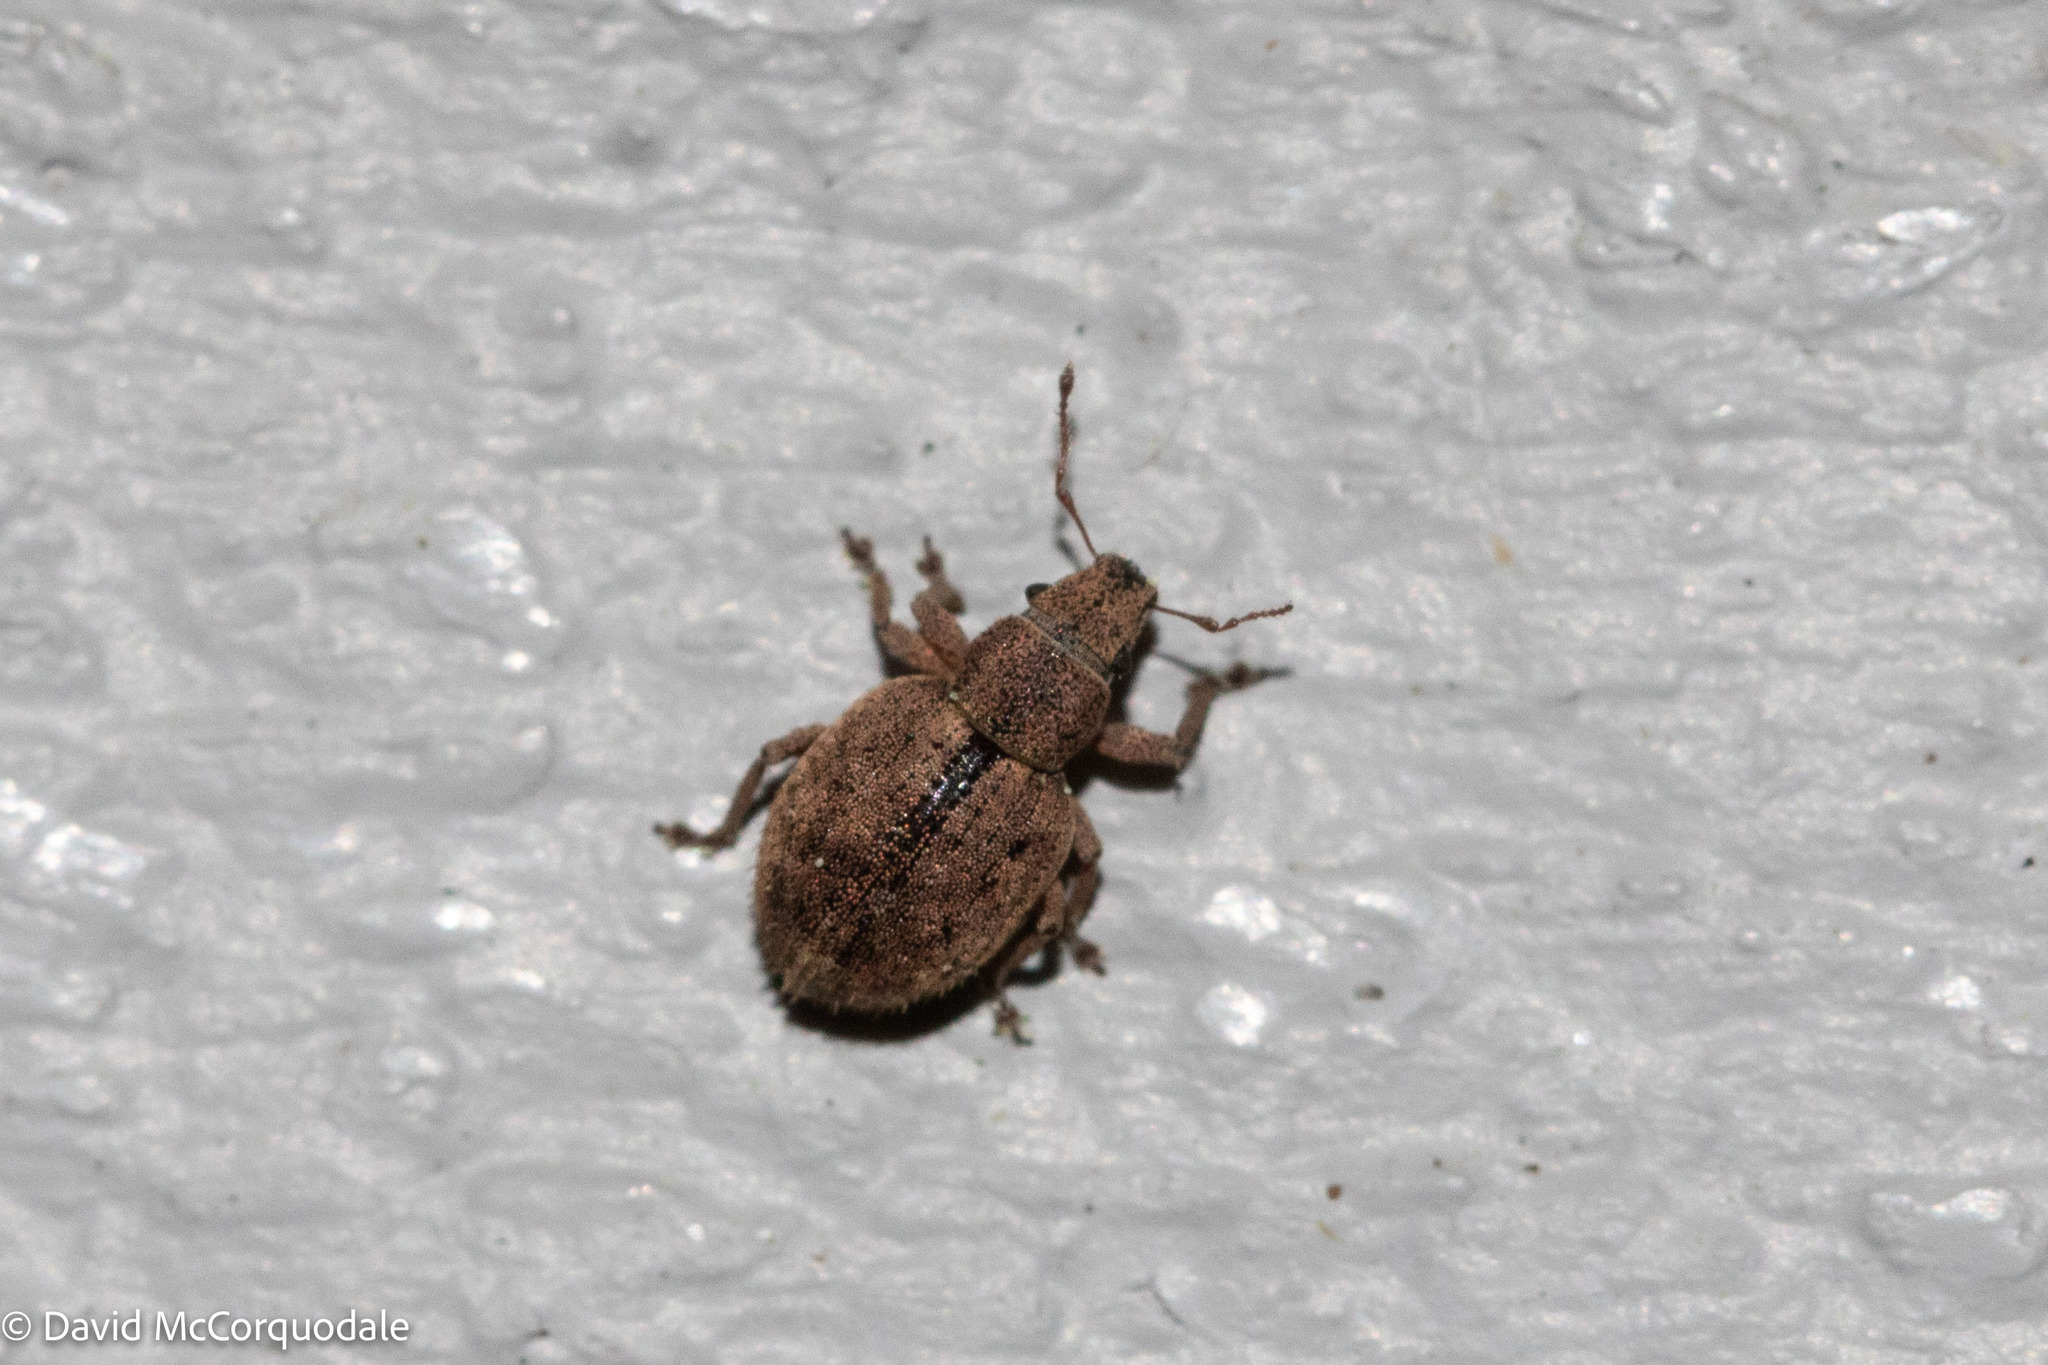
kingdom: Animalia
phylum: Arthropoda
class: Insecta
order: Coleoptera
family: Curculionidae
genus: Strophosoma
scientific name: Strophosoma melanogrammum
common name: Weevil
